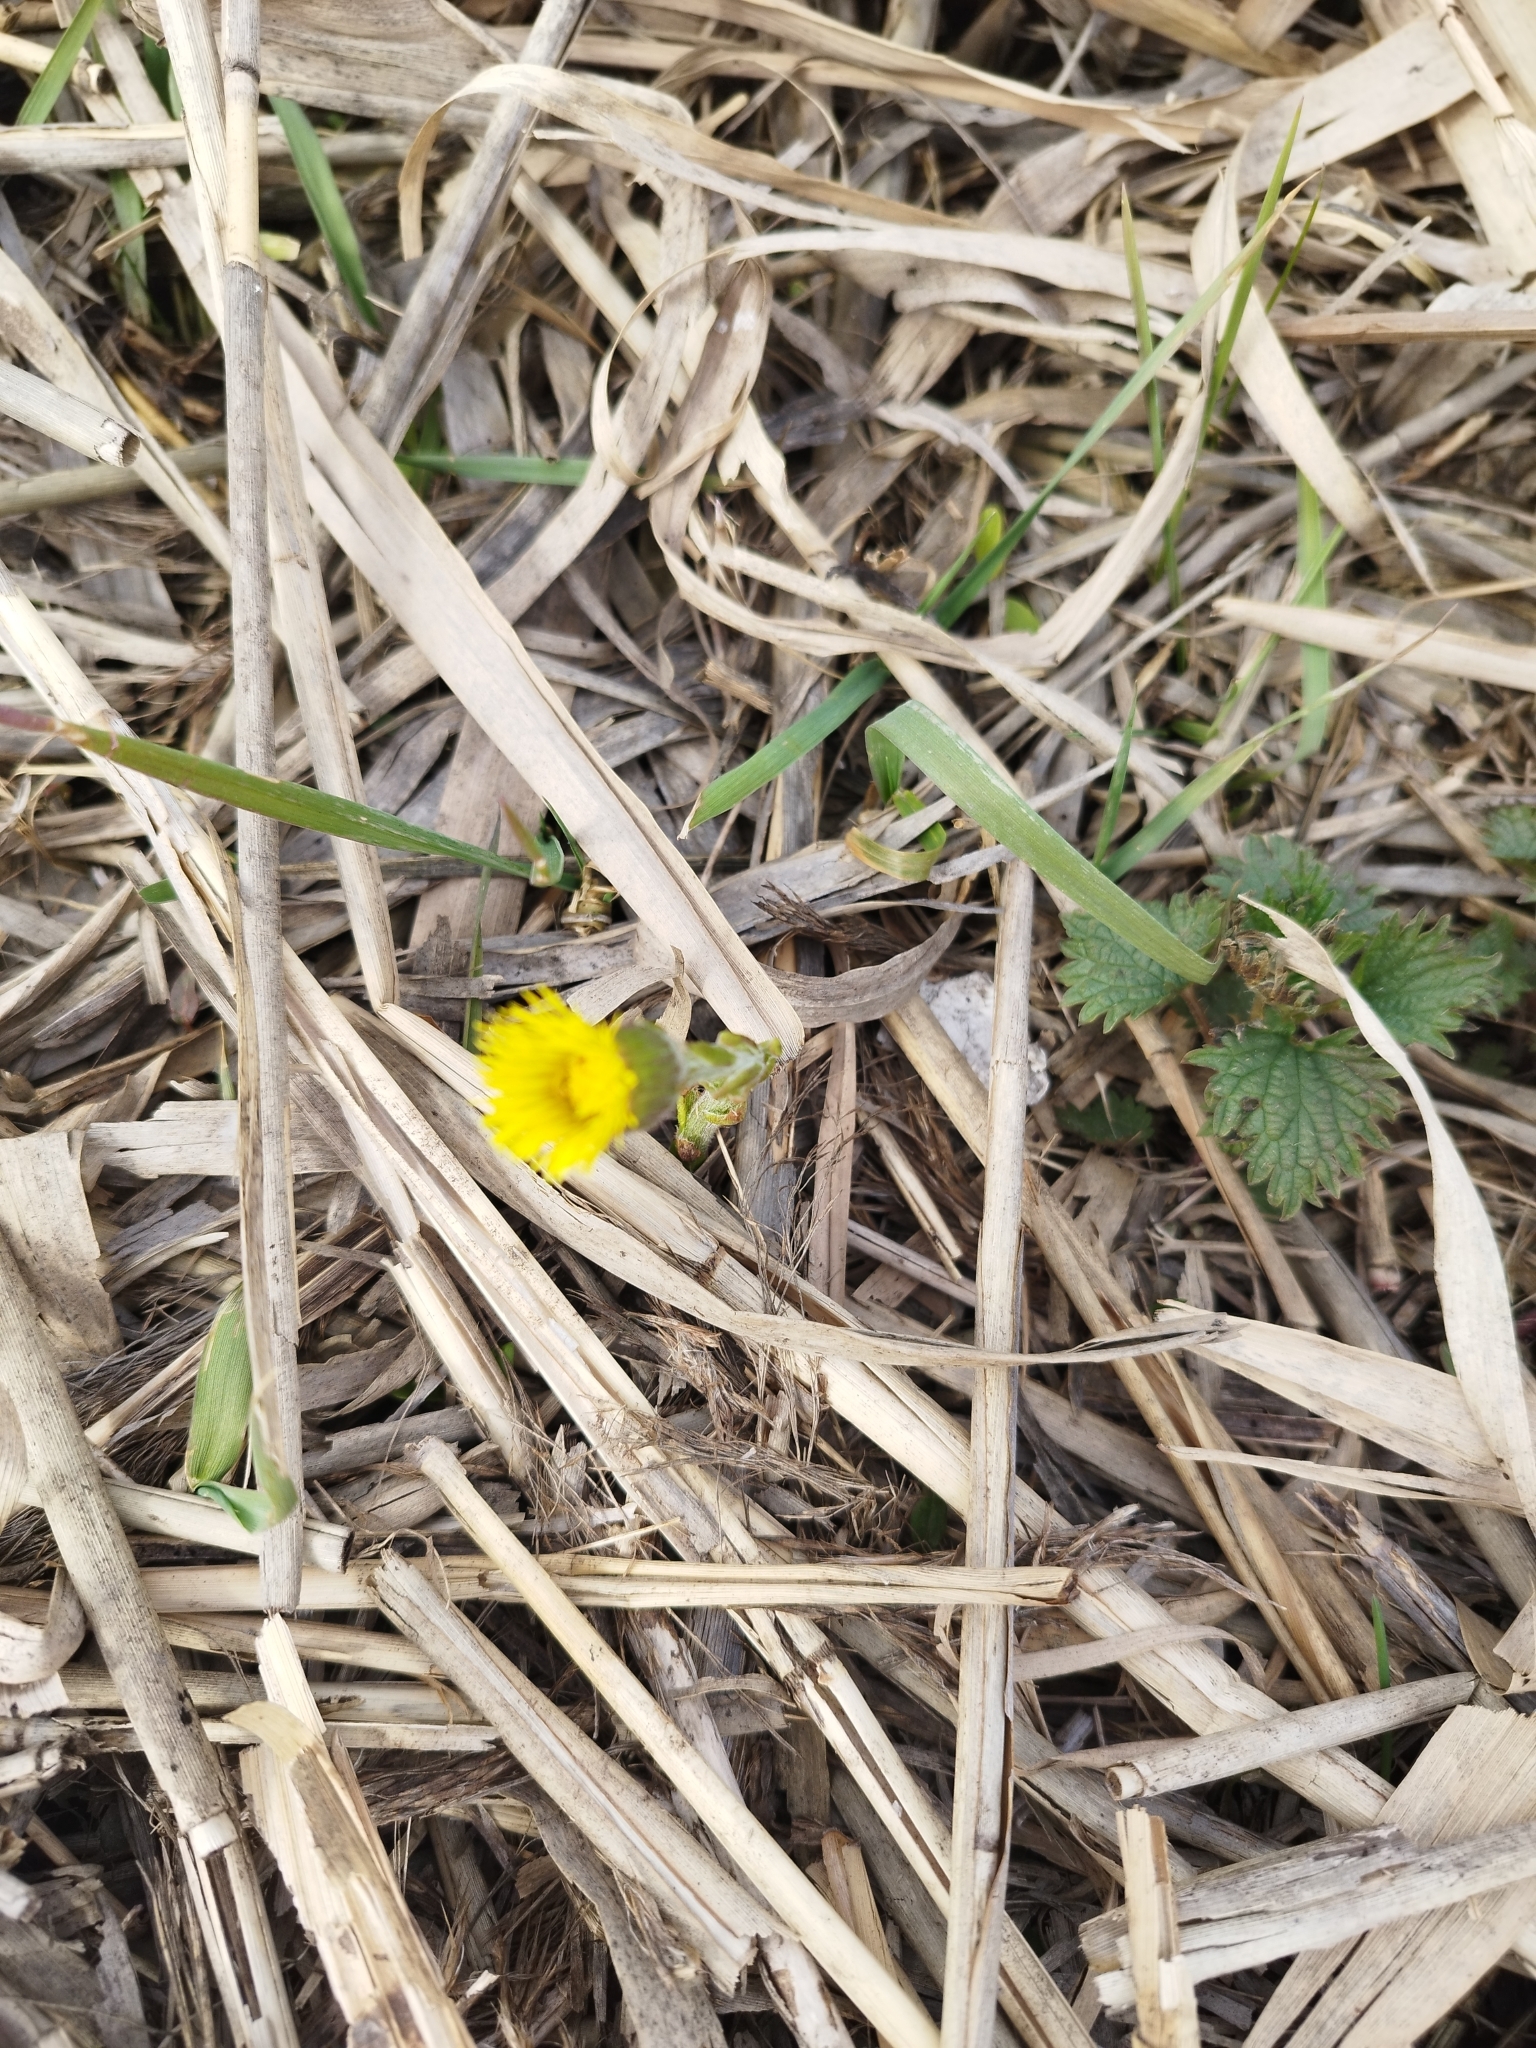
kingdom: Plantae
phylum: Tracheophyta
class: Magnoliopsida
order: Asterales
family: Asteraceae
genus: Tussilago
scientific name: Tussilago farfara
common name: Coltsfoot
